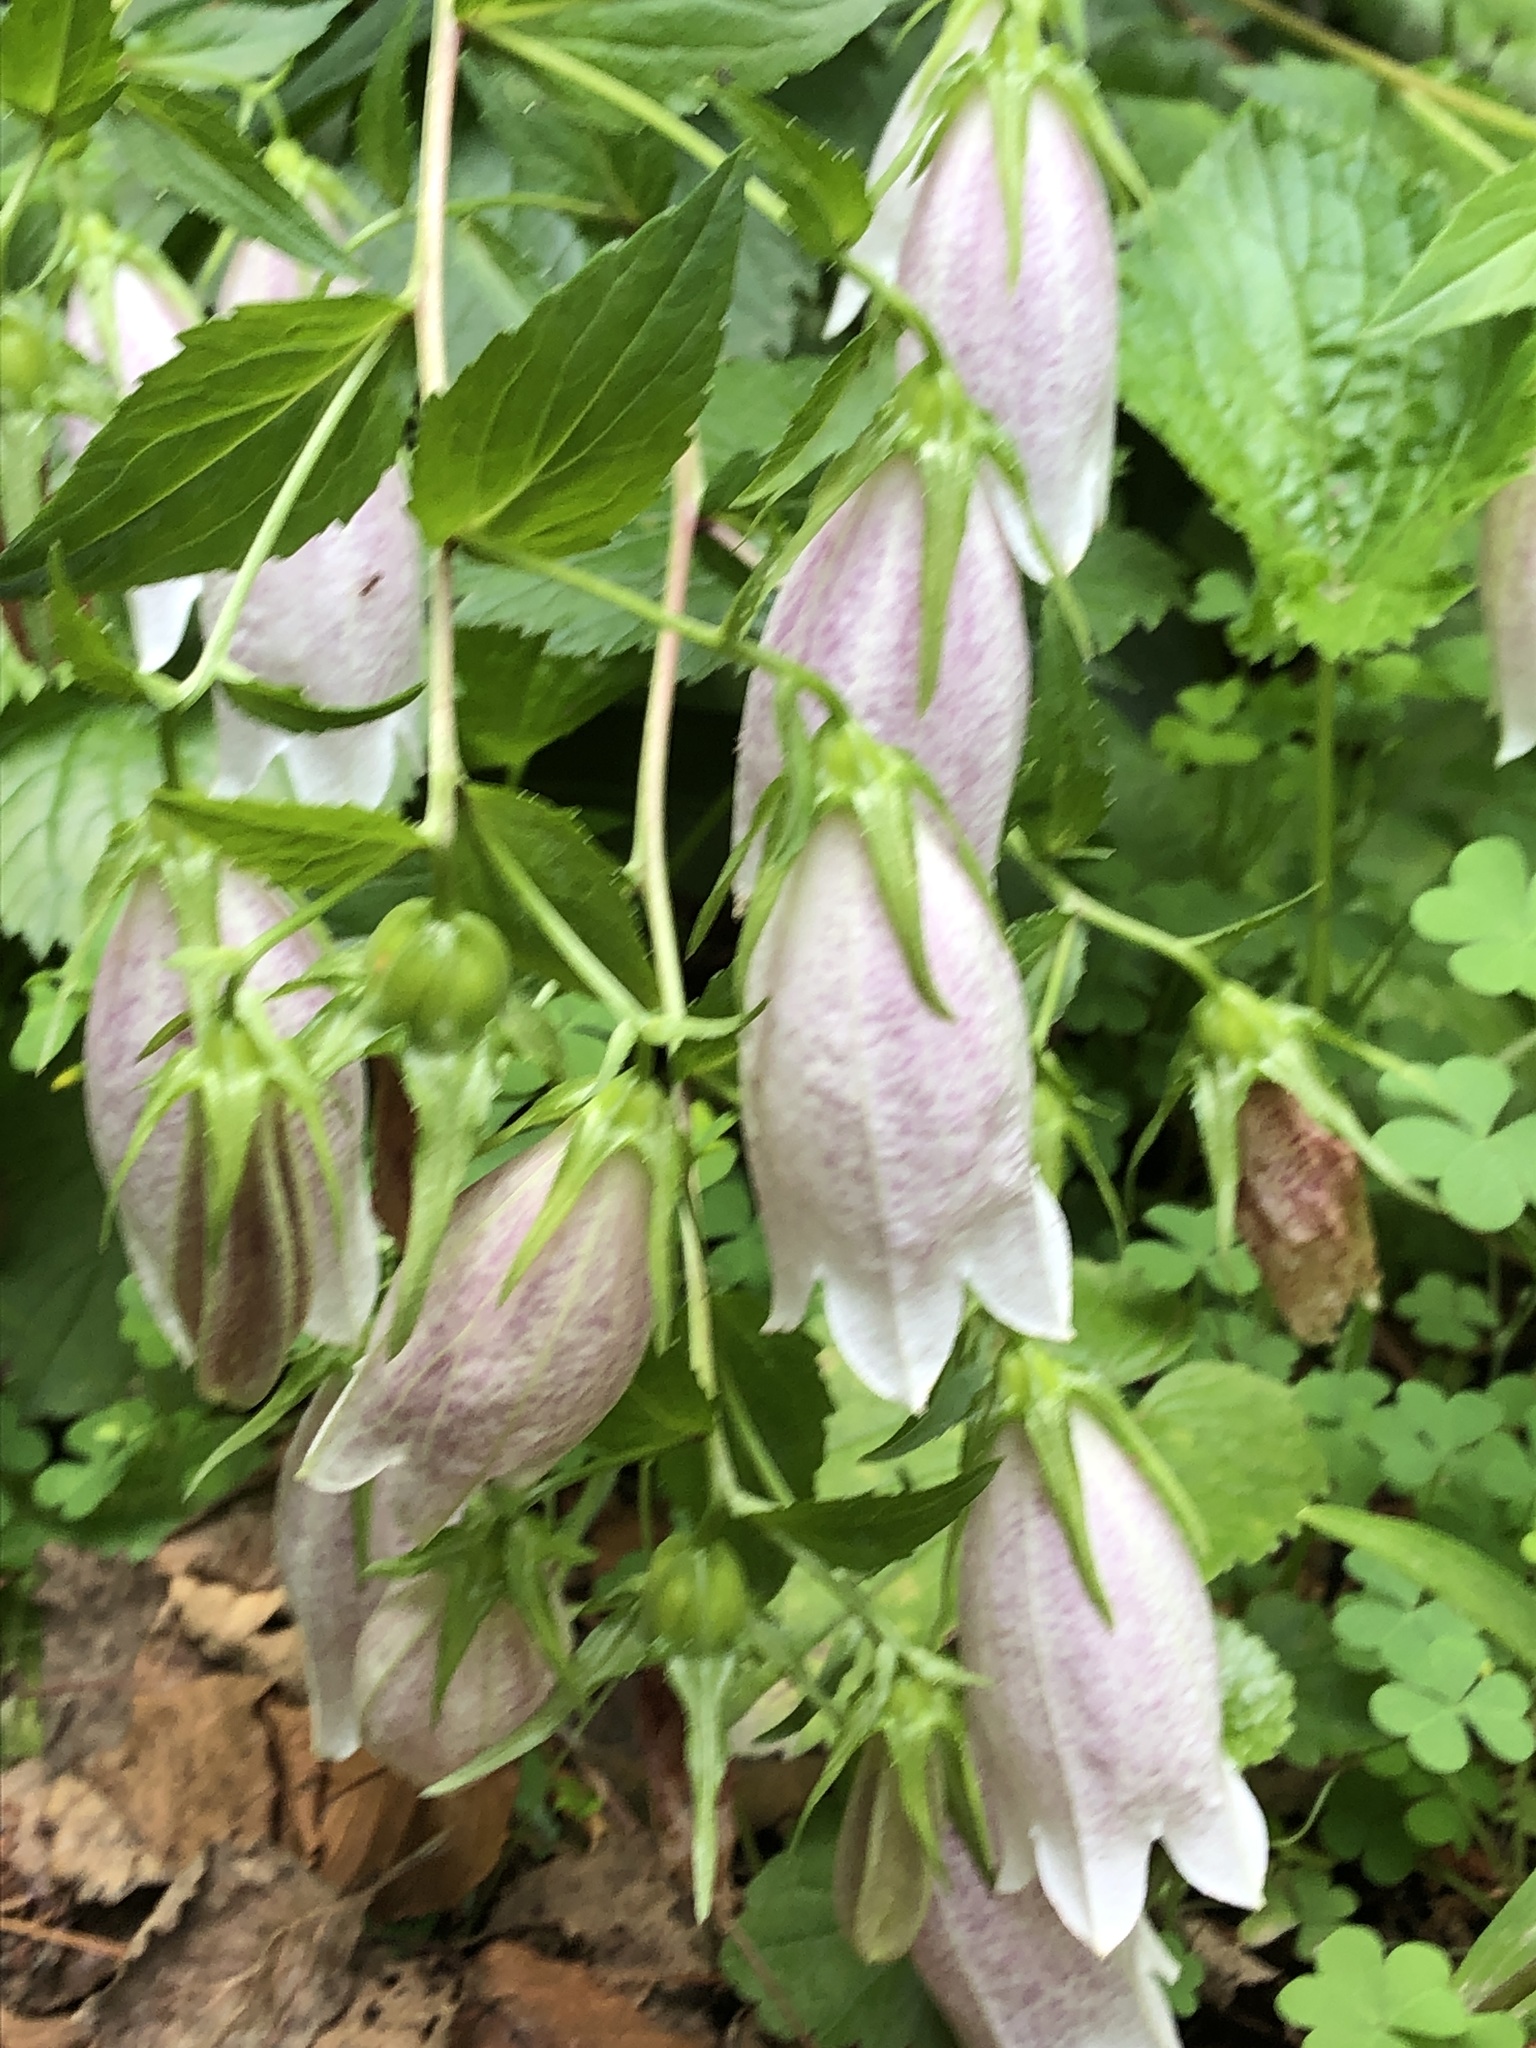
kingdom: Plantae
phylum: Tracheophyta
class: Magnoliopsida
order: Asterales
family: Campanulaceae
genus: Campanula
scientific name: Campanula punctata
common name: Spotted bellflower
